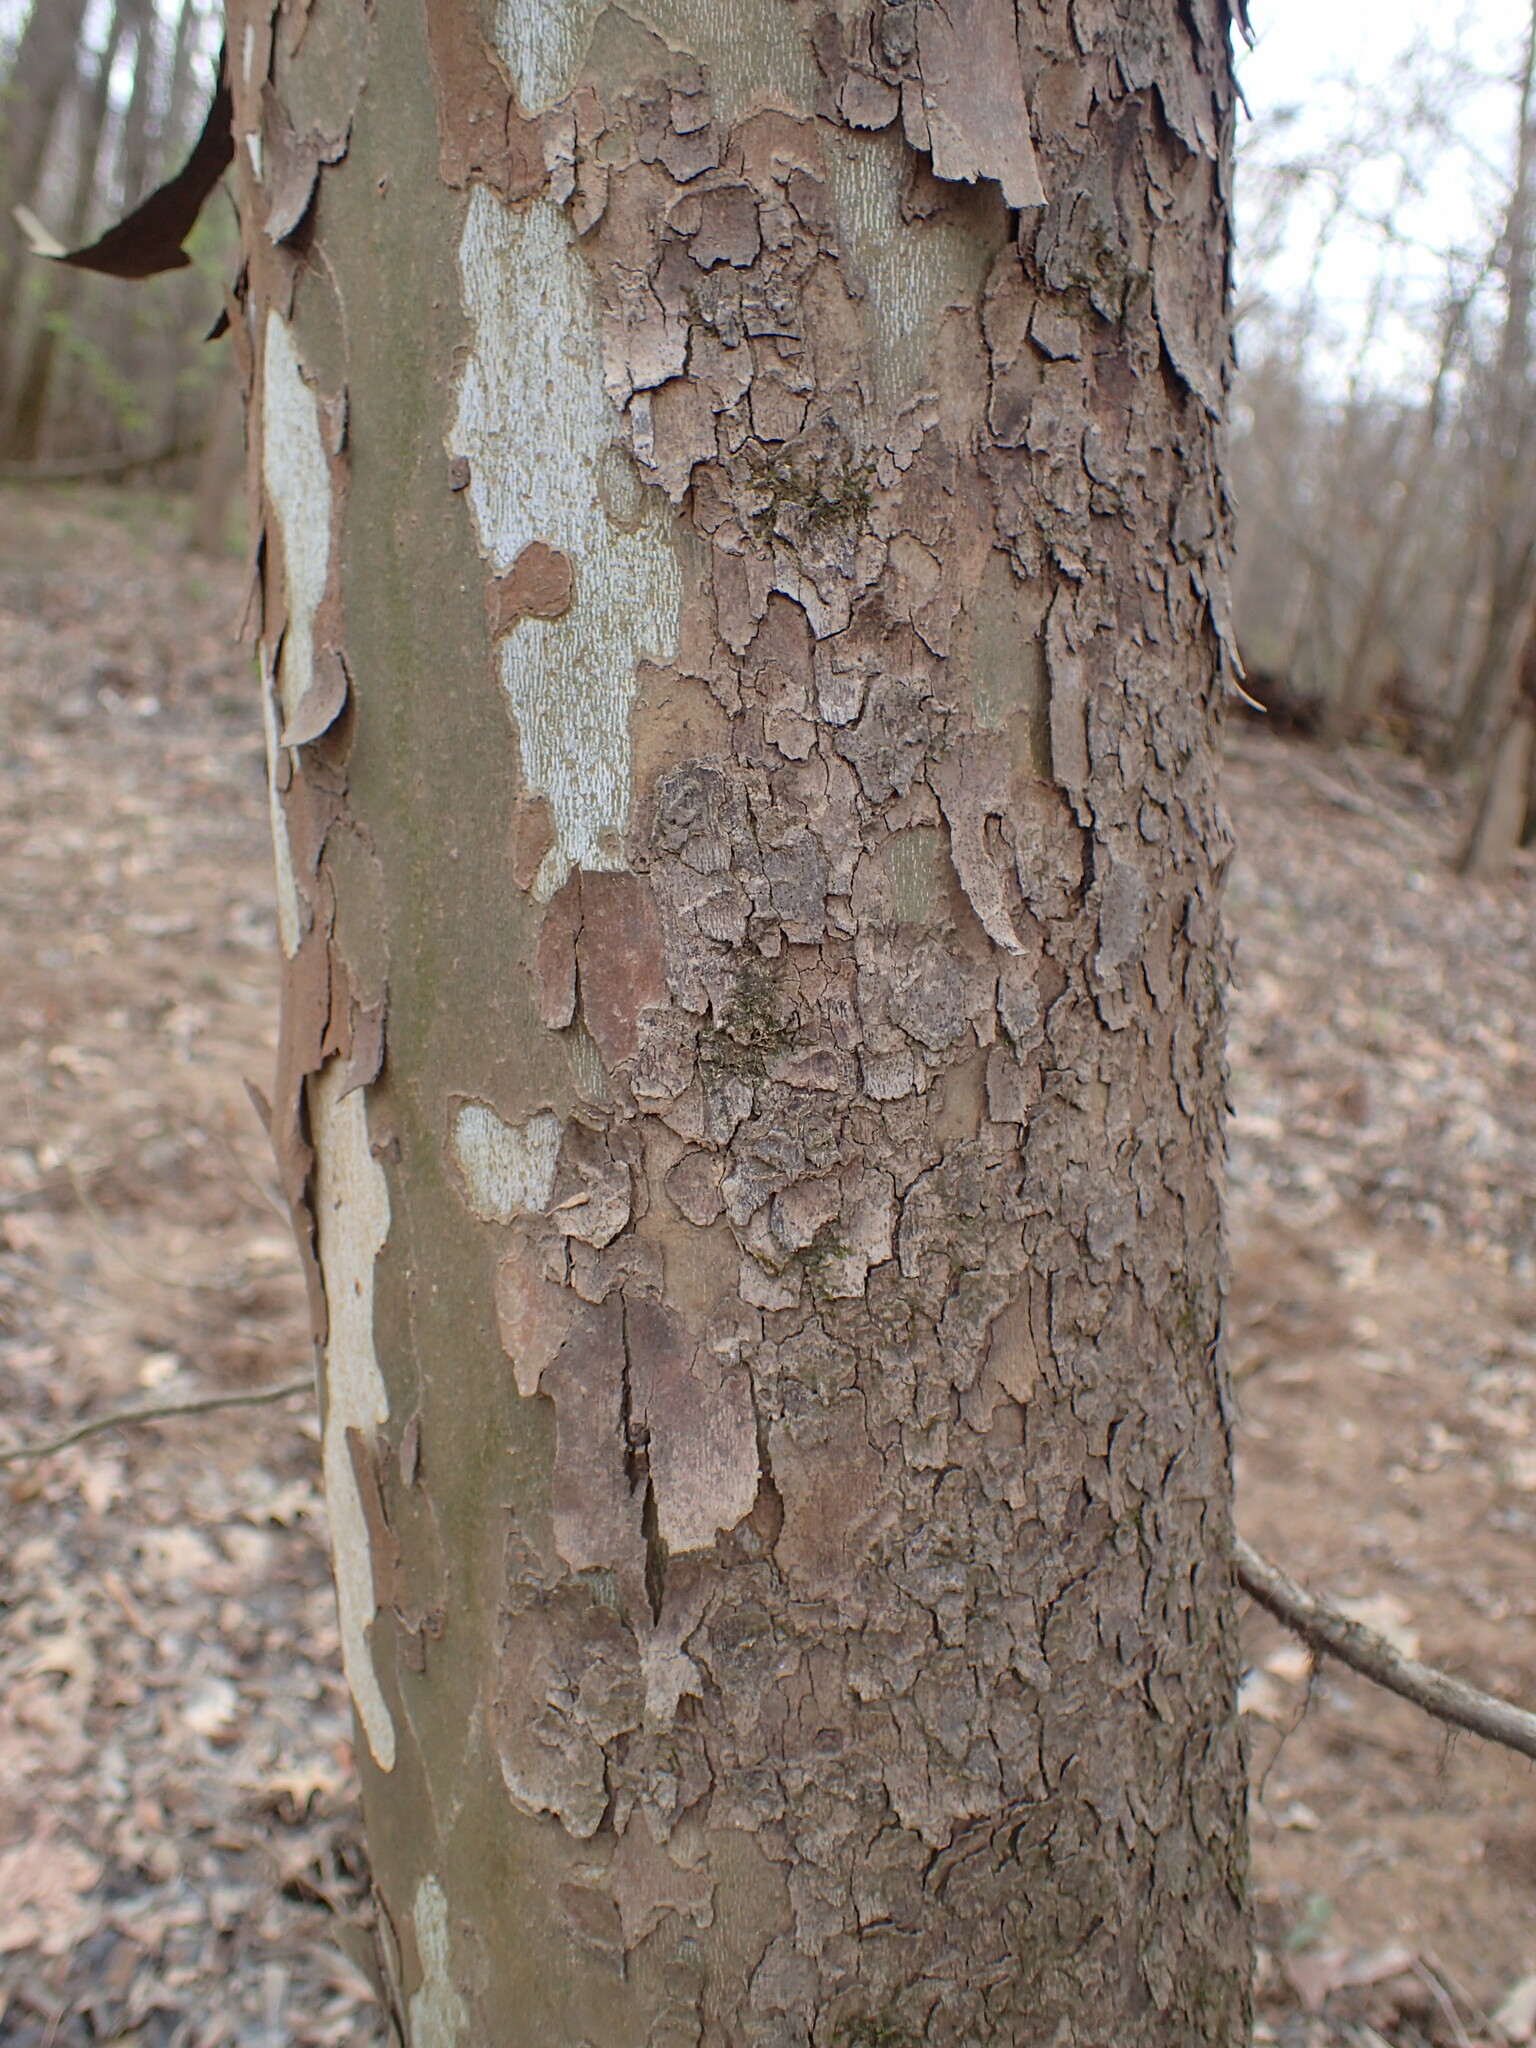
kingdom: Plantae
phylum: Tracheophyta
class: Magnoliopsida
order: Proteales
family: Platanaceae
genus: Platanus
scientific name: Platanus occidentalis
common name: American sycamore
